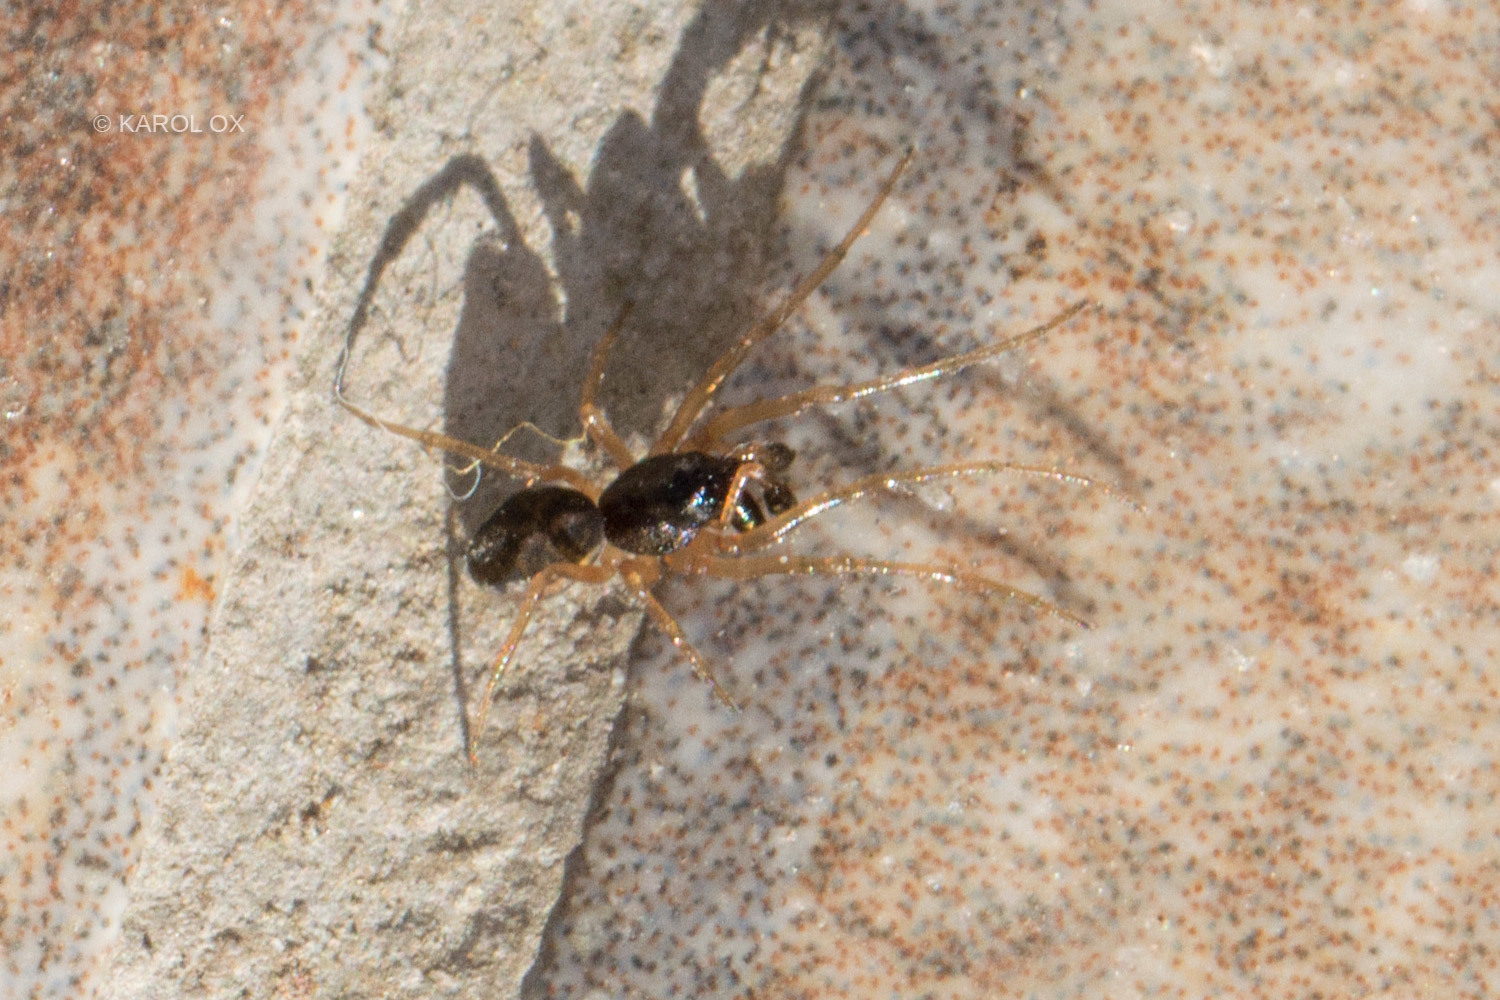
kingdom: Animalia
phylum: Arthropoda
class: Arachnida
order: Araneae
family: Tetragnathidae
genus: Pachygnatha
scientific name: Pachygnatha degeeri
